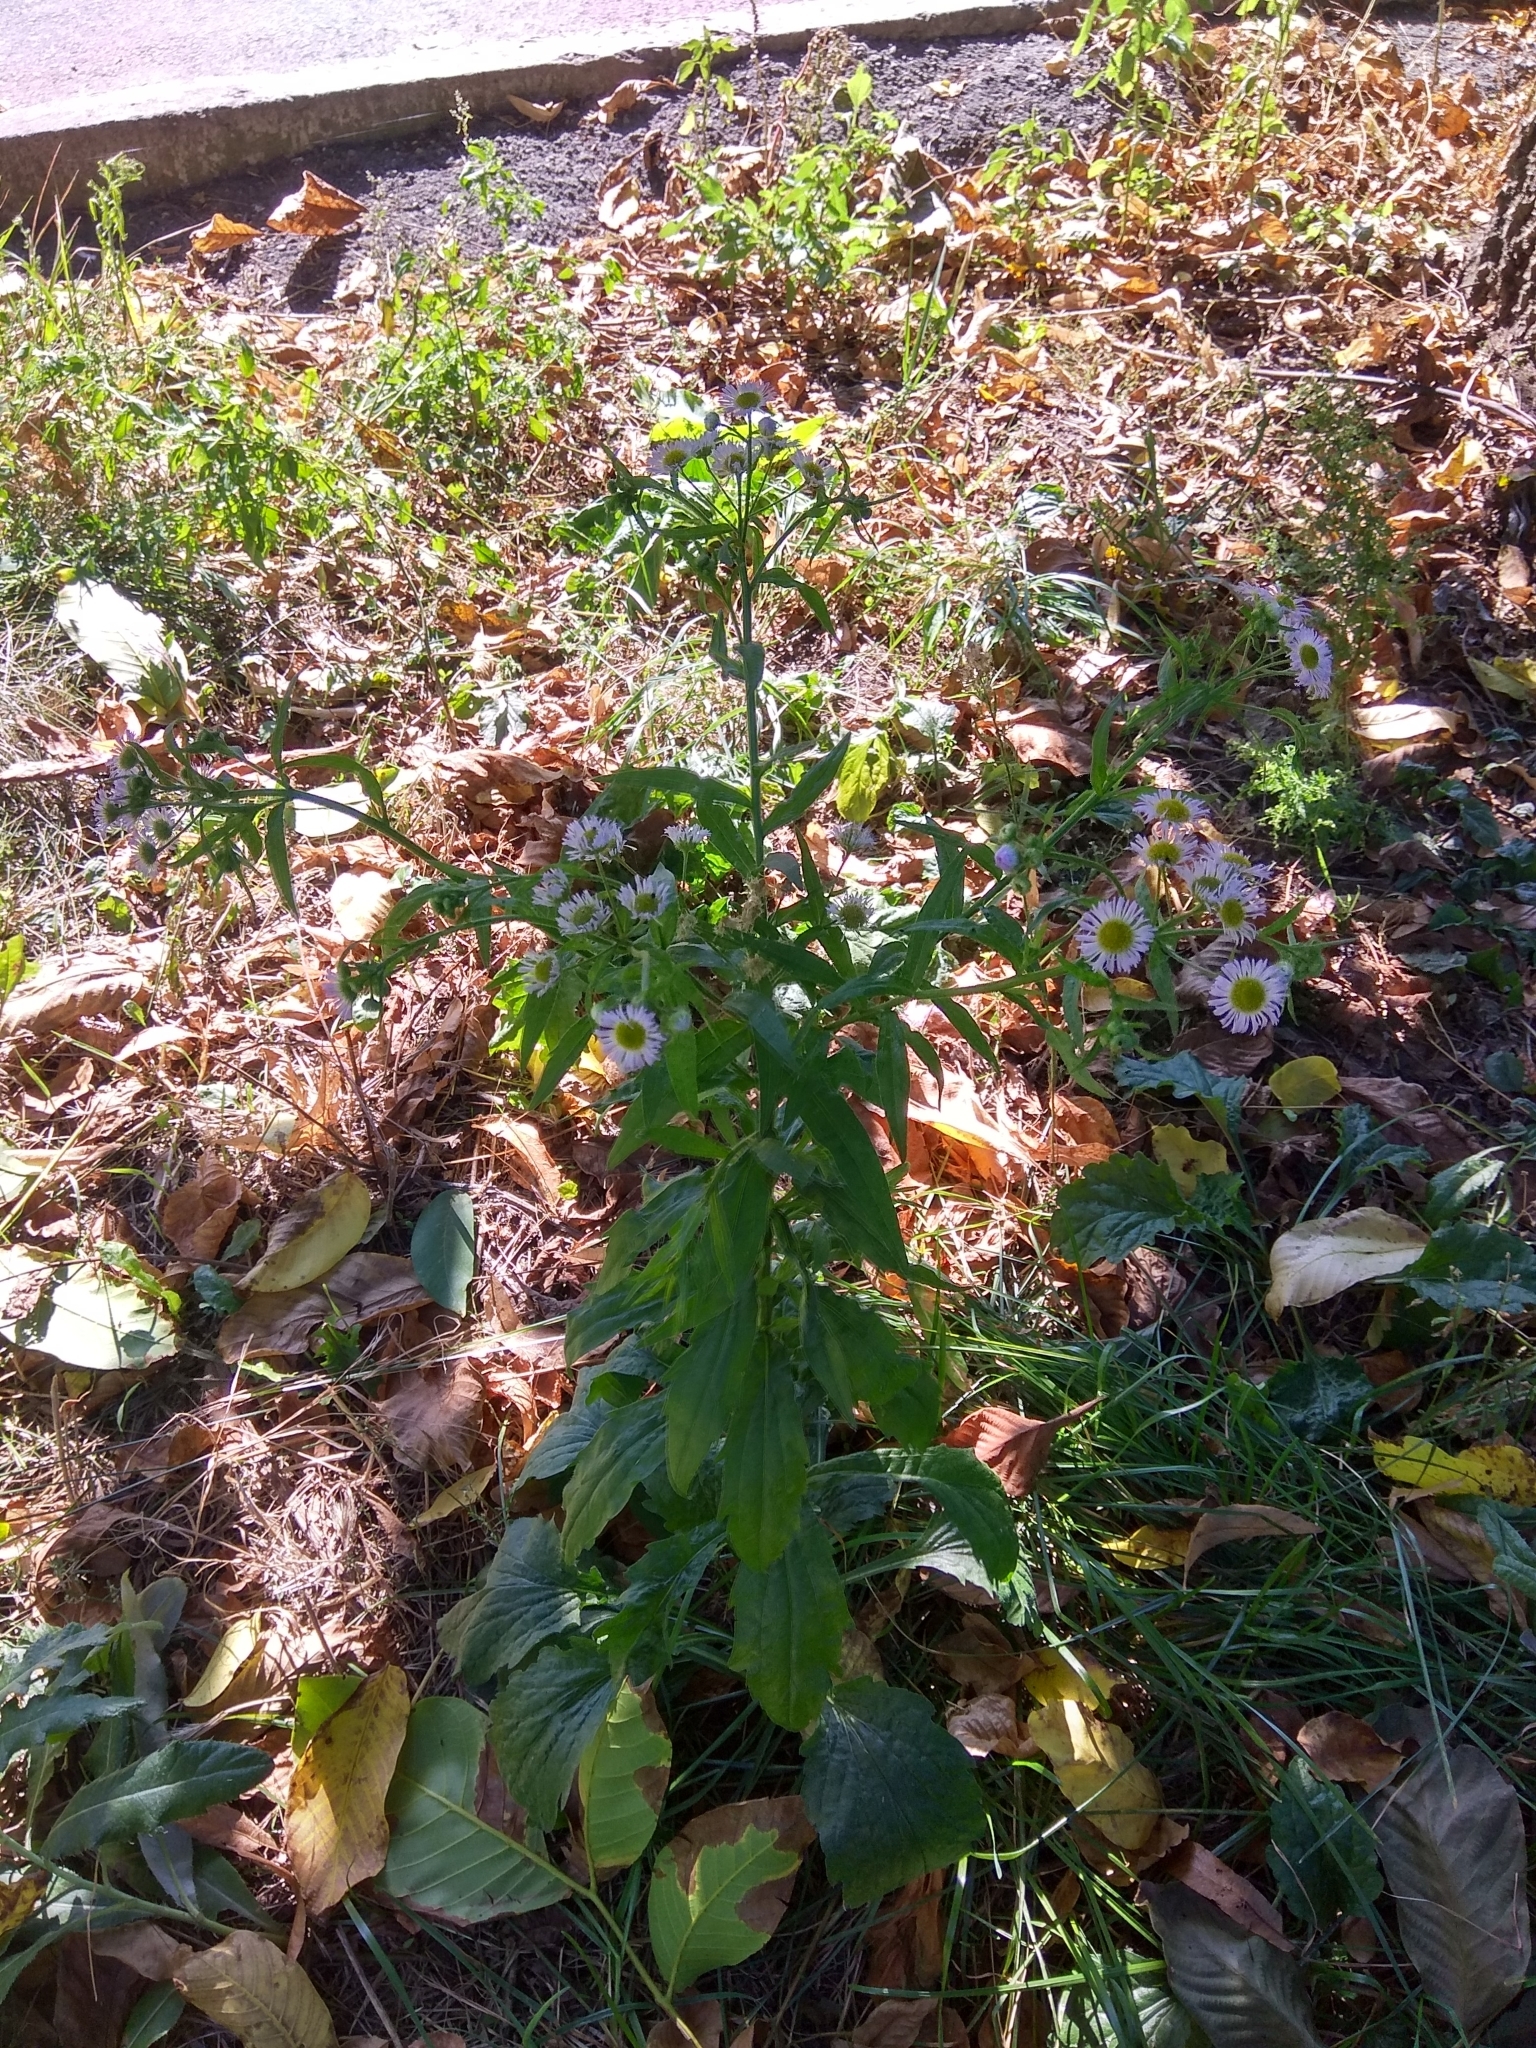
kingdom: Plantae
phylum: Tracheophyta
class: Magnoliopsida
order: Asterales
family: Asteraceae
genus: Erigeron
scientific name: Erigeron annuus
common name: Tall fleabane
